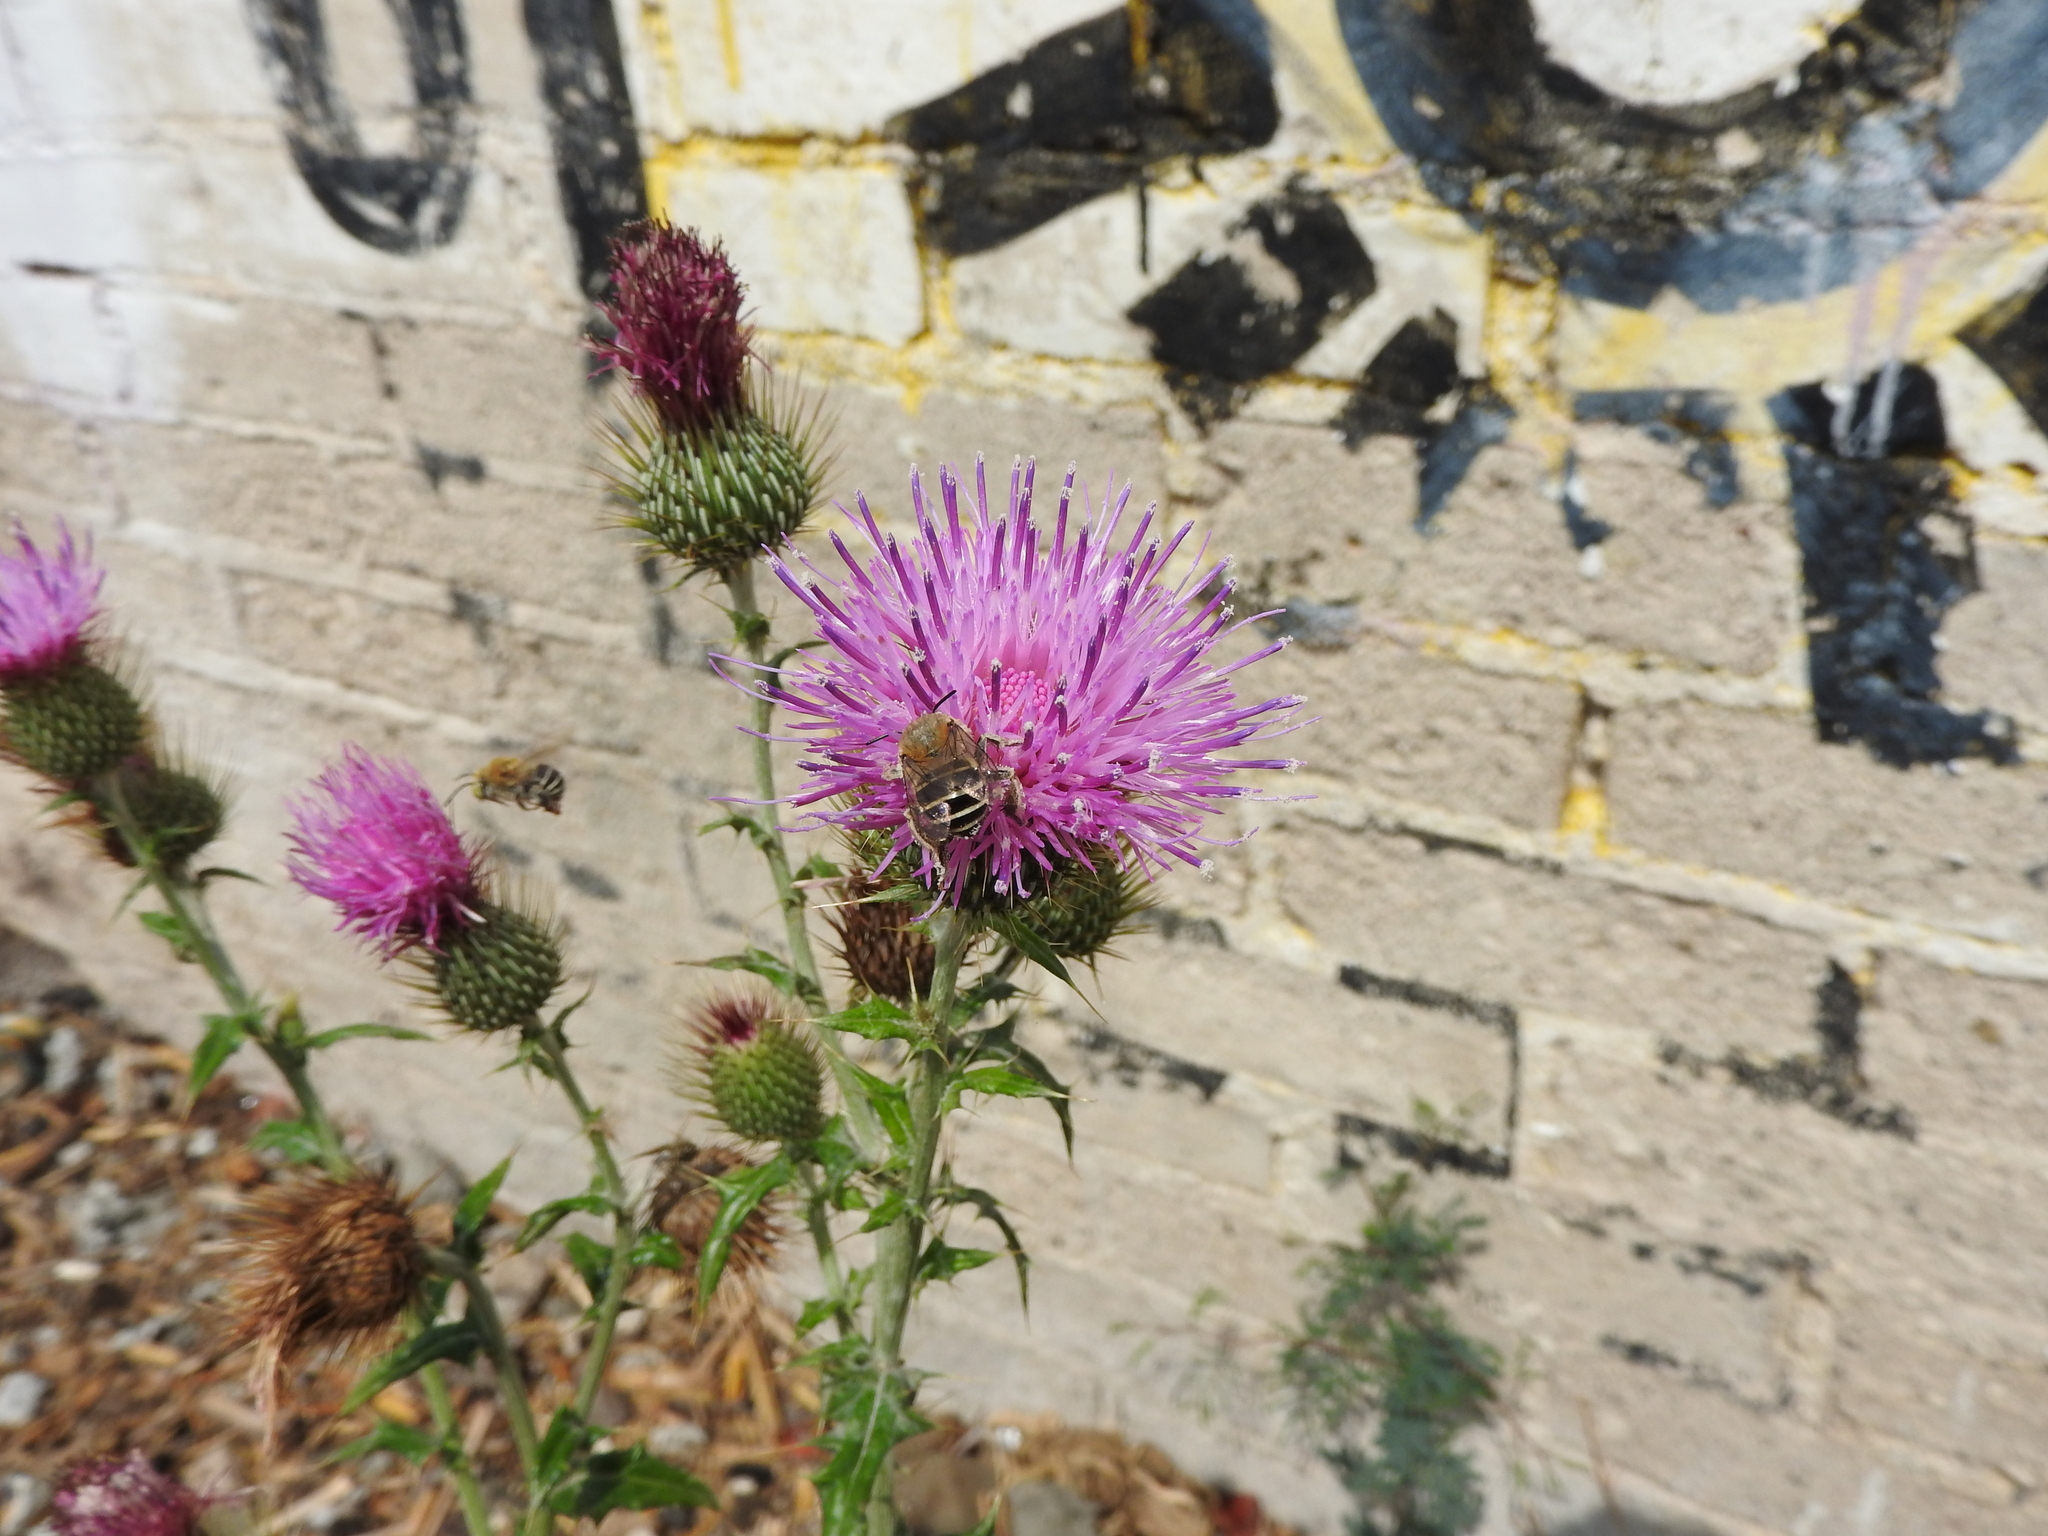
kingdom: Animalia
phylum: Arthropoda
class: Insecta
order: Hymenoptera
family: Apidae
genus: Anthophora
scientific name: Anthophora californica
